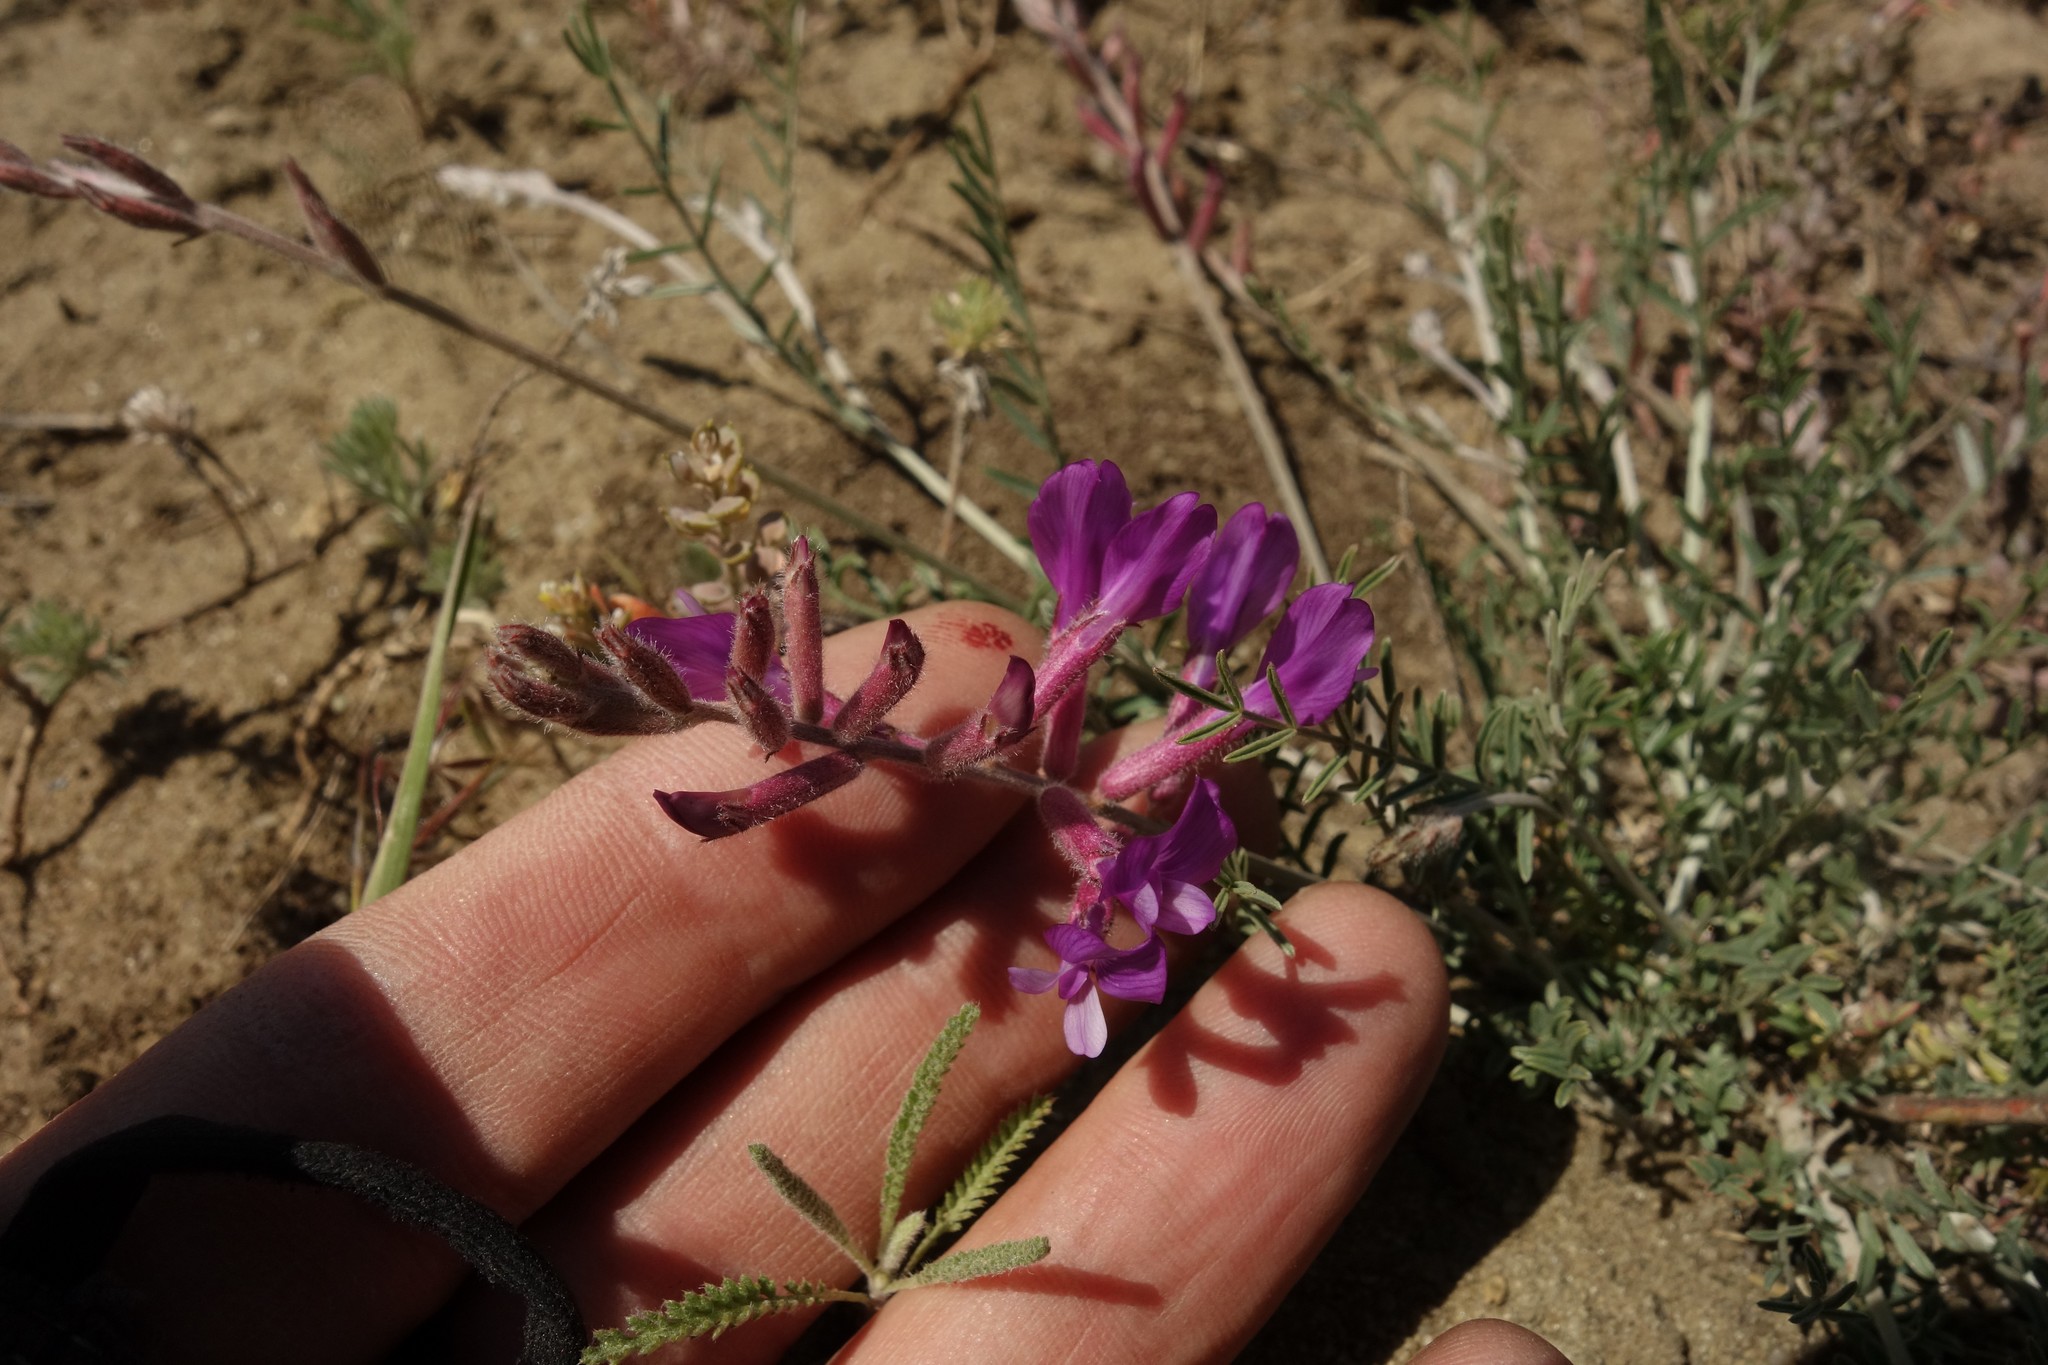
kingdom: Plantae
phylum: Tracheophyta
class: Magnoliopsida
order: Fabales
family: Fabaceae
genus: Astragalus
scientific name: Astragalus varius
